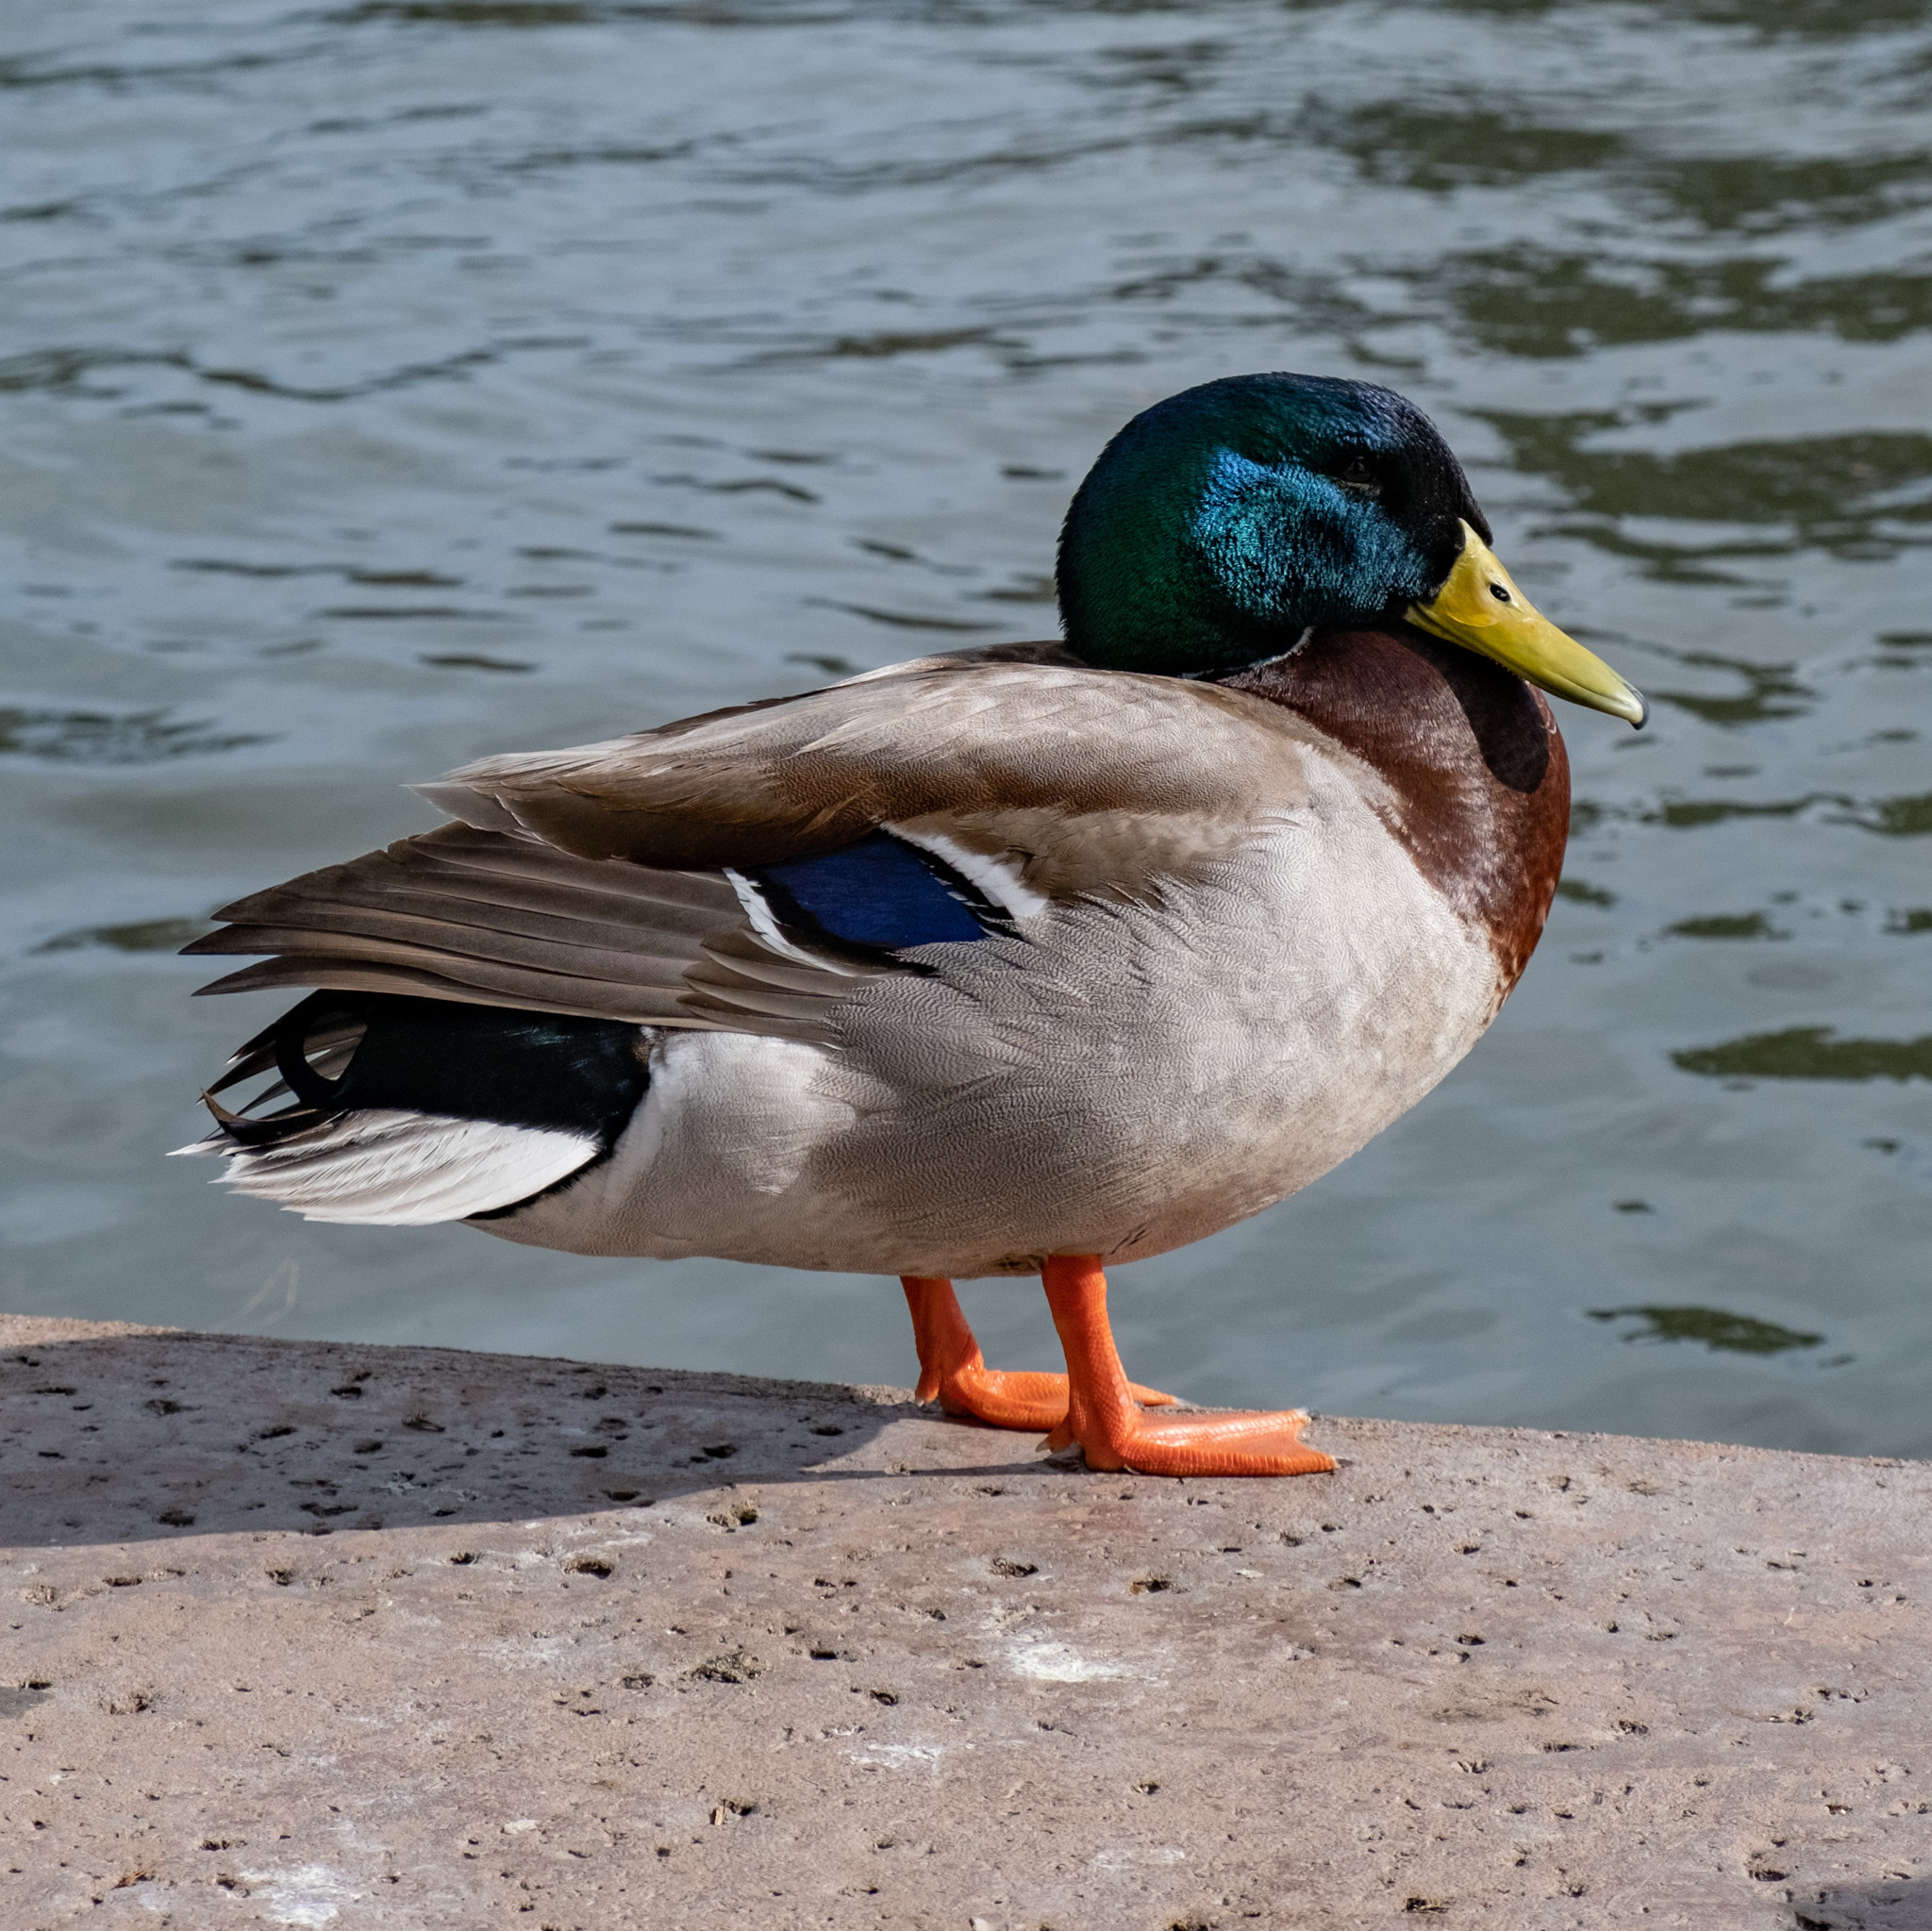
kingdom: Animalia
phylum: Chordata
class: Aves
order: Anseriformes
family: Anatidae
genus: Anas
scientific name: Anas platyrhynchos
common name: Mallard
